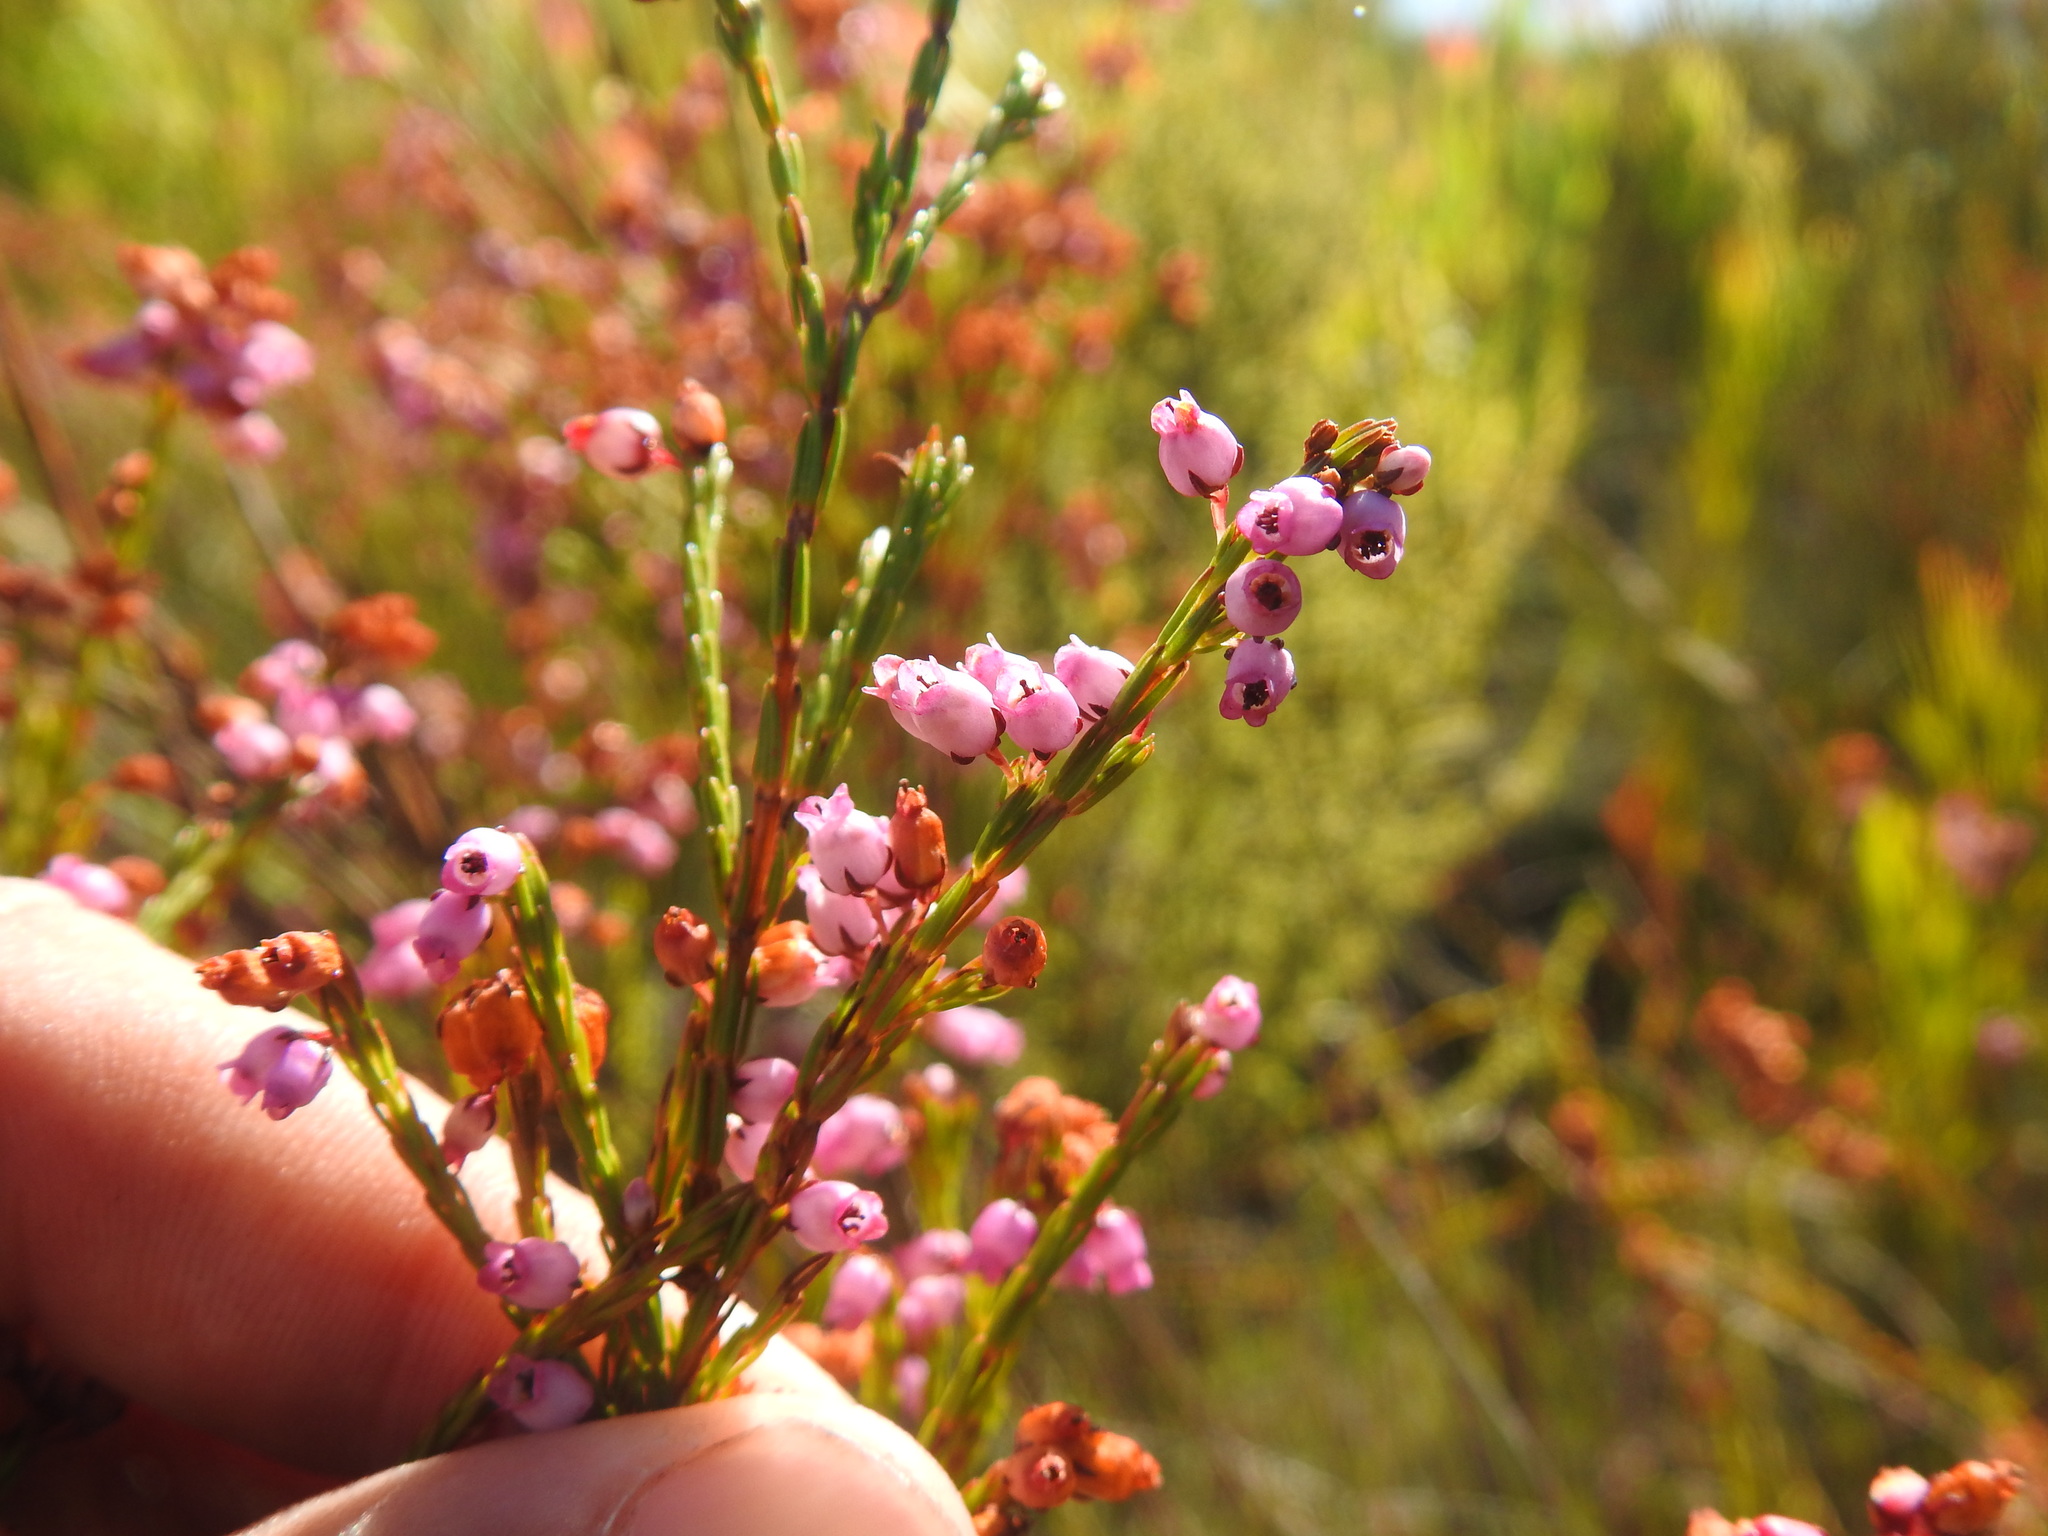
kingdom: Plantae
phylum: Tracheophyta
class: Magnoliopsida
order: Ericales
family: Ericaceae
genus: Erica
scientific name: Erica laeta
